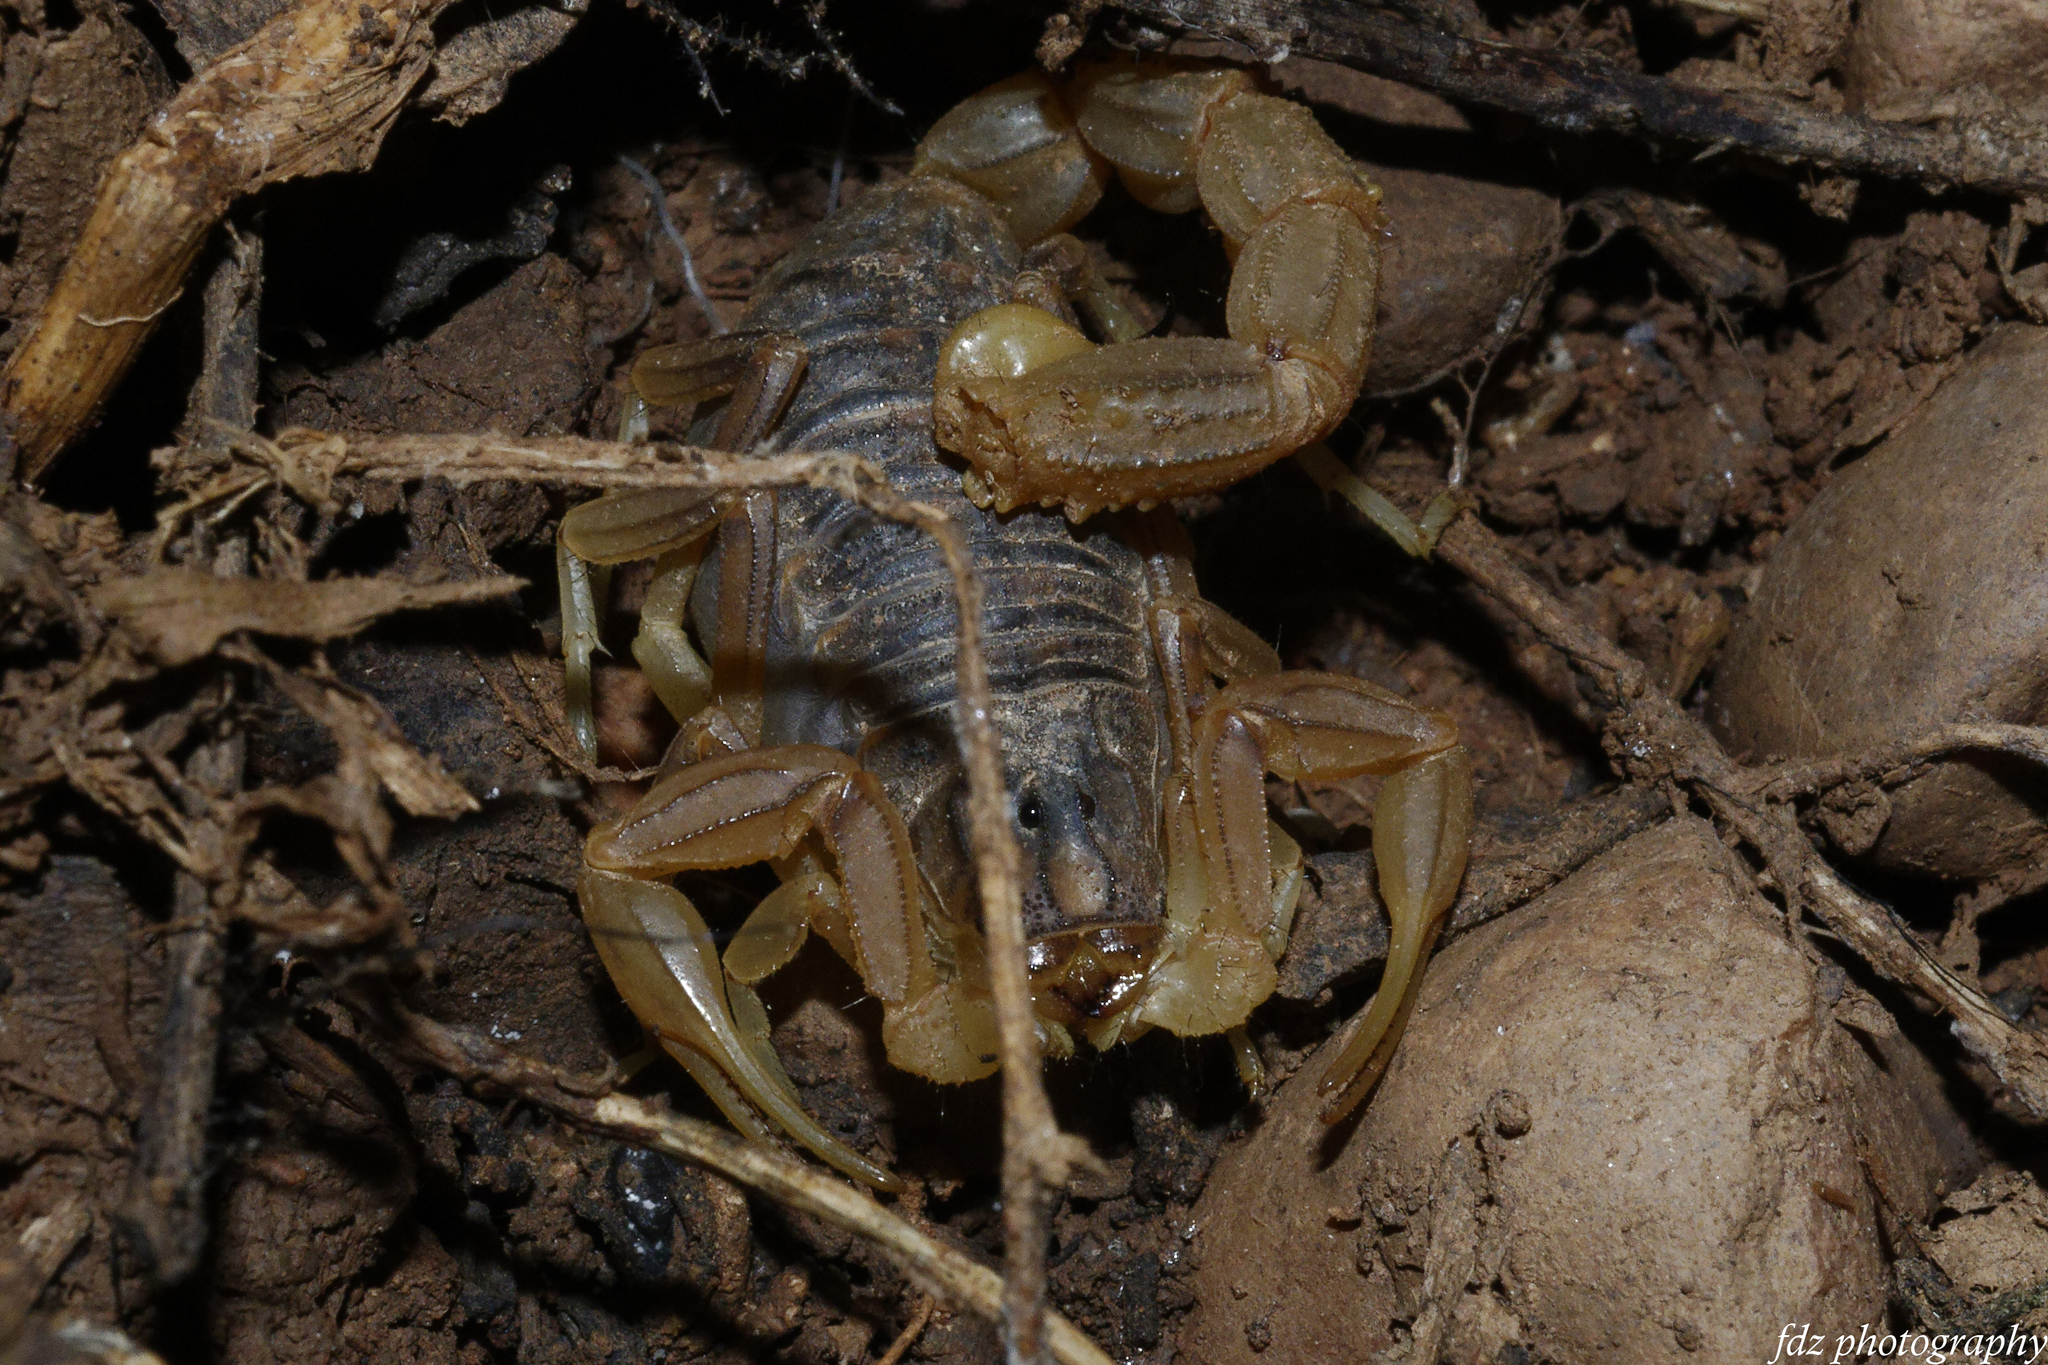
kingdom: Animalia
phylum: Arthropoda
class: Arachnida
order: Scorpiones
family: Buthidae
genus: Buthus
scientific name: Buthus ajax
